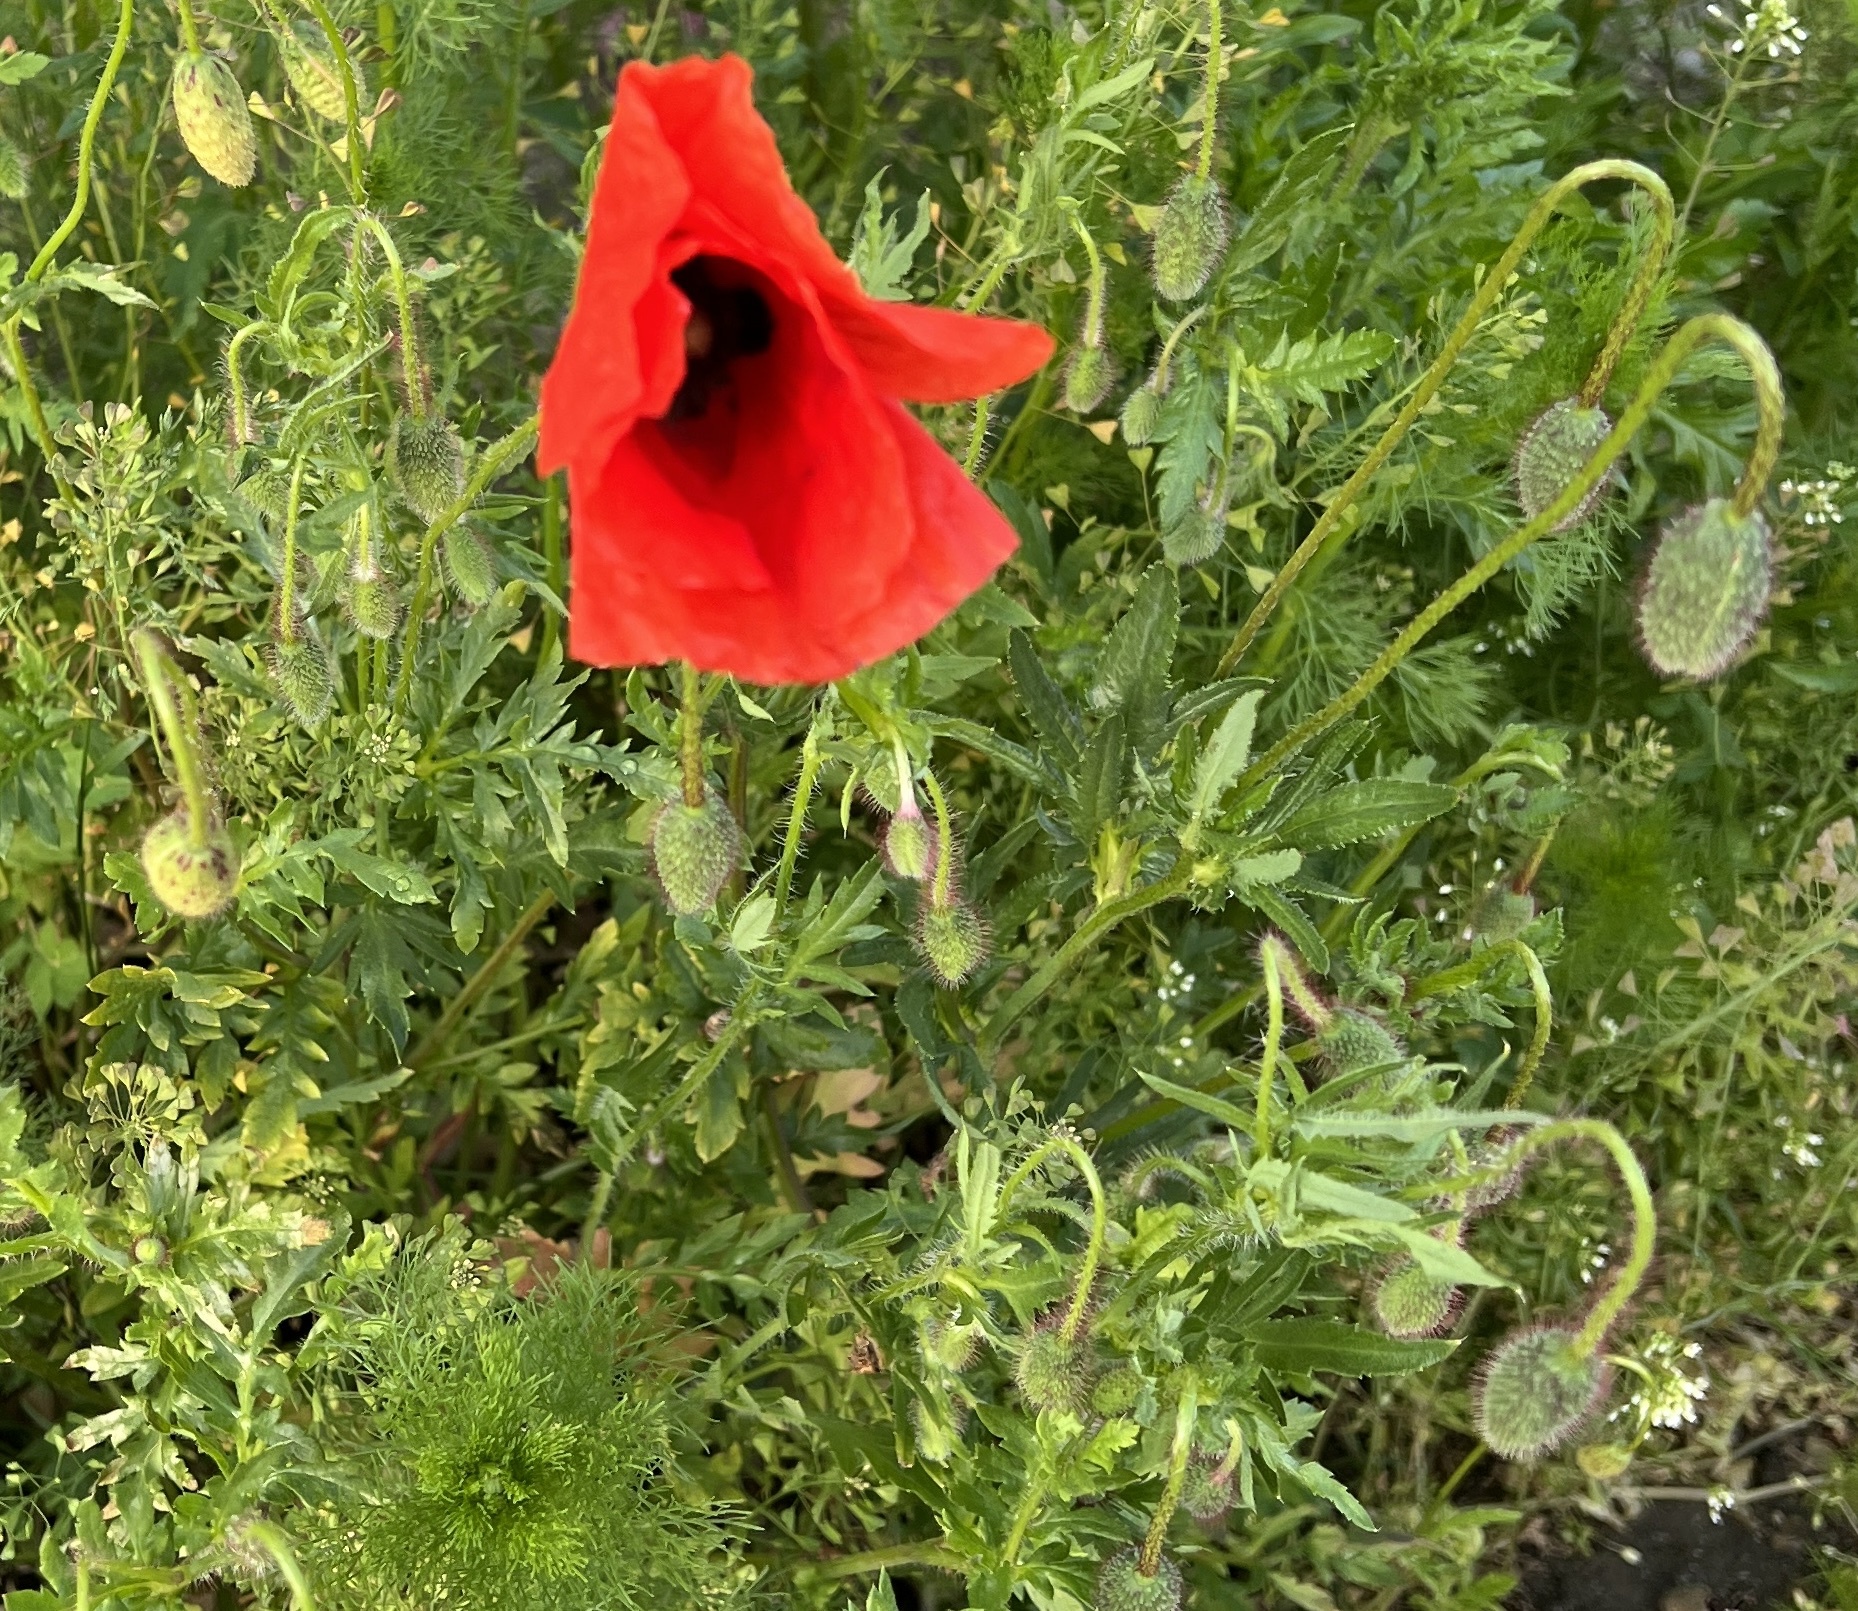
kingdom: Plantae
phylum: Tracheophyta
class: Magnoliopsida
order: Ranunculales
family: Papaveraceae
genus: Papaver
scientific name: Papaver rhoeas
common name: Corn poppy
